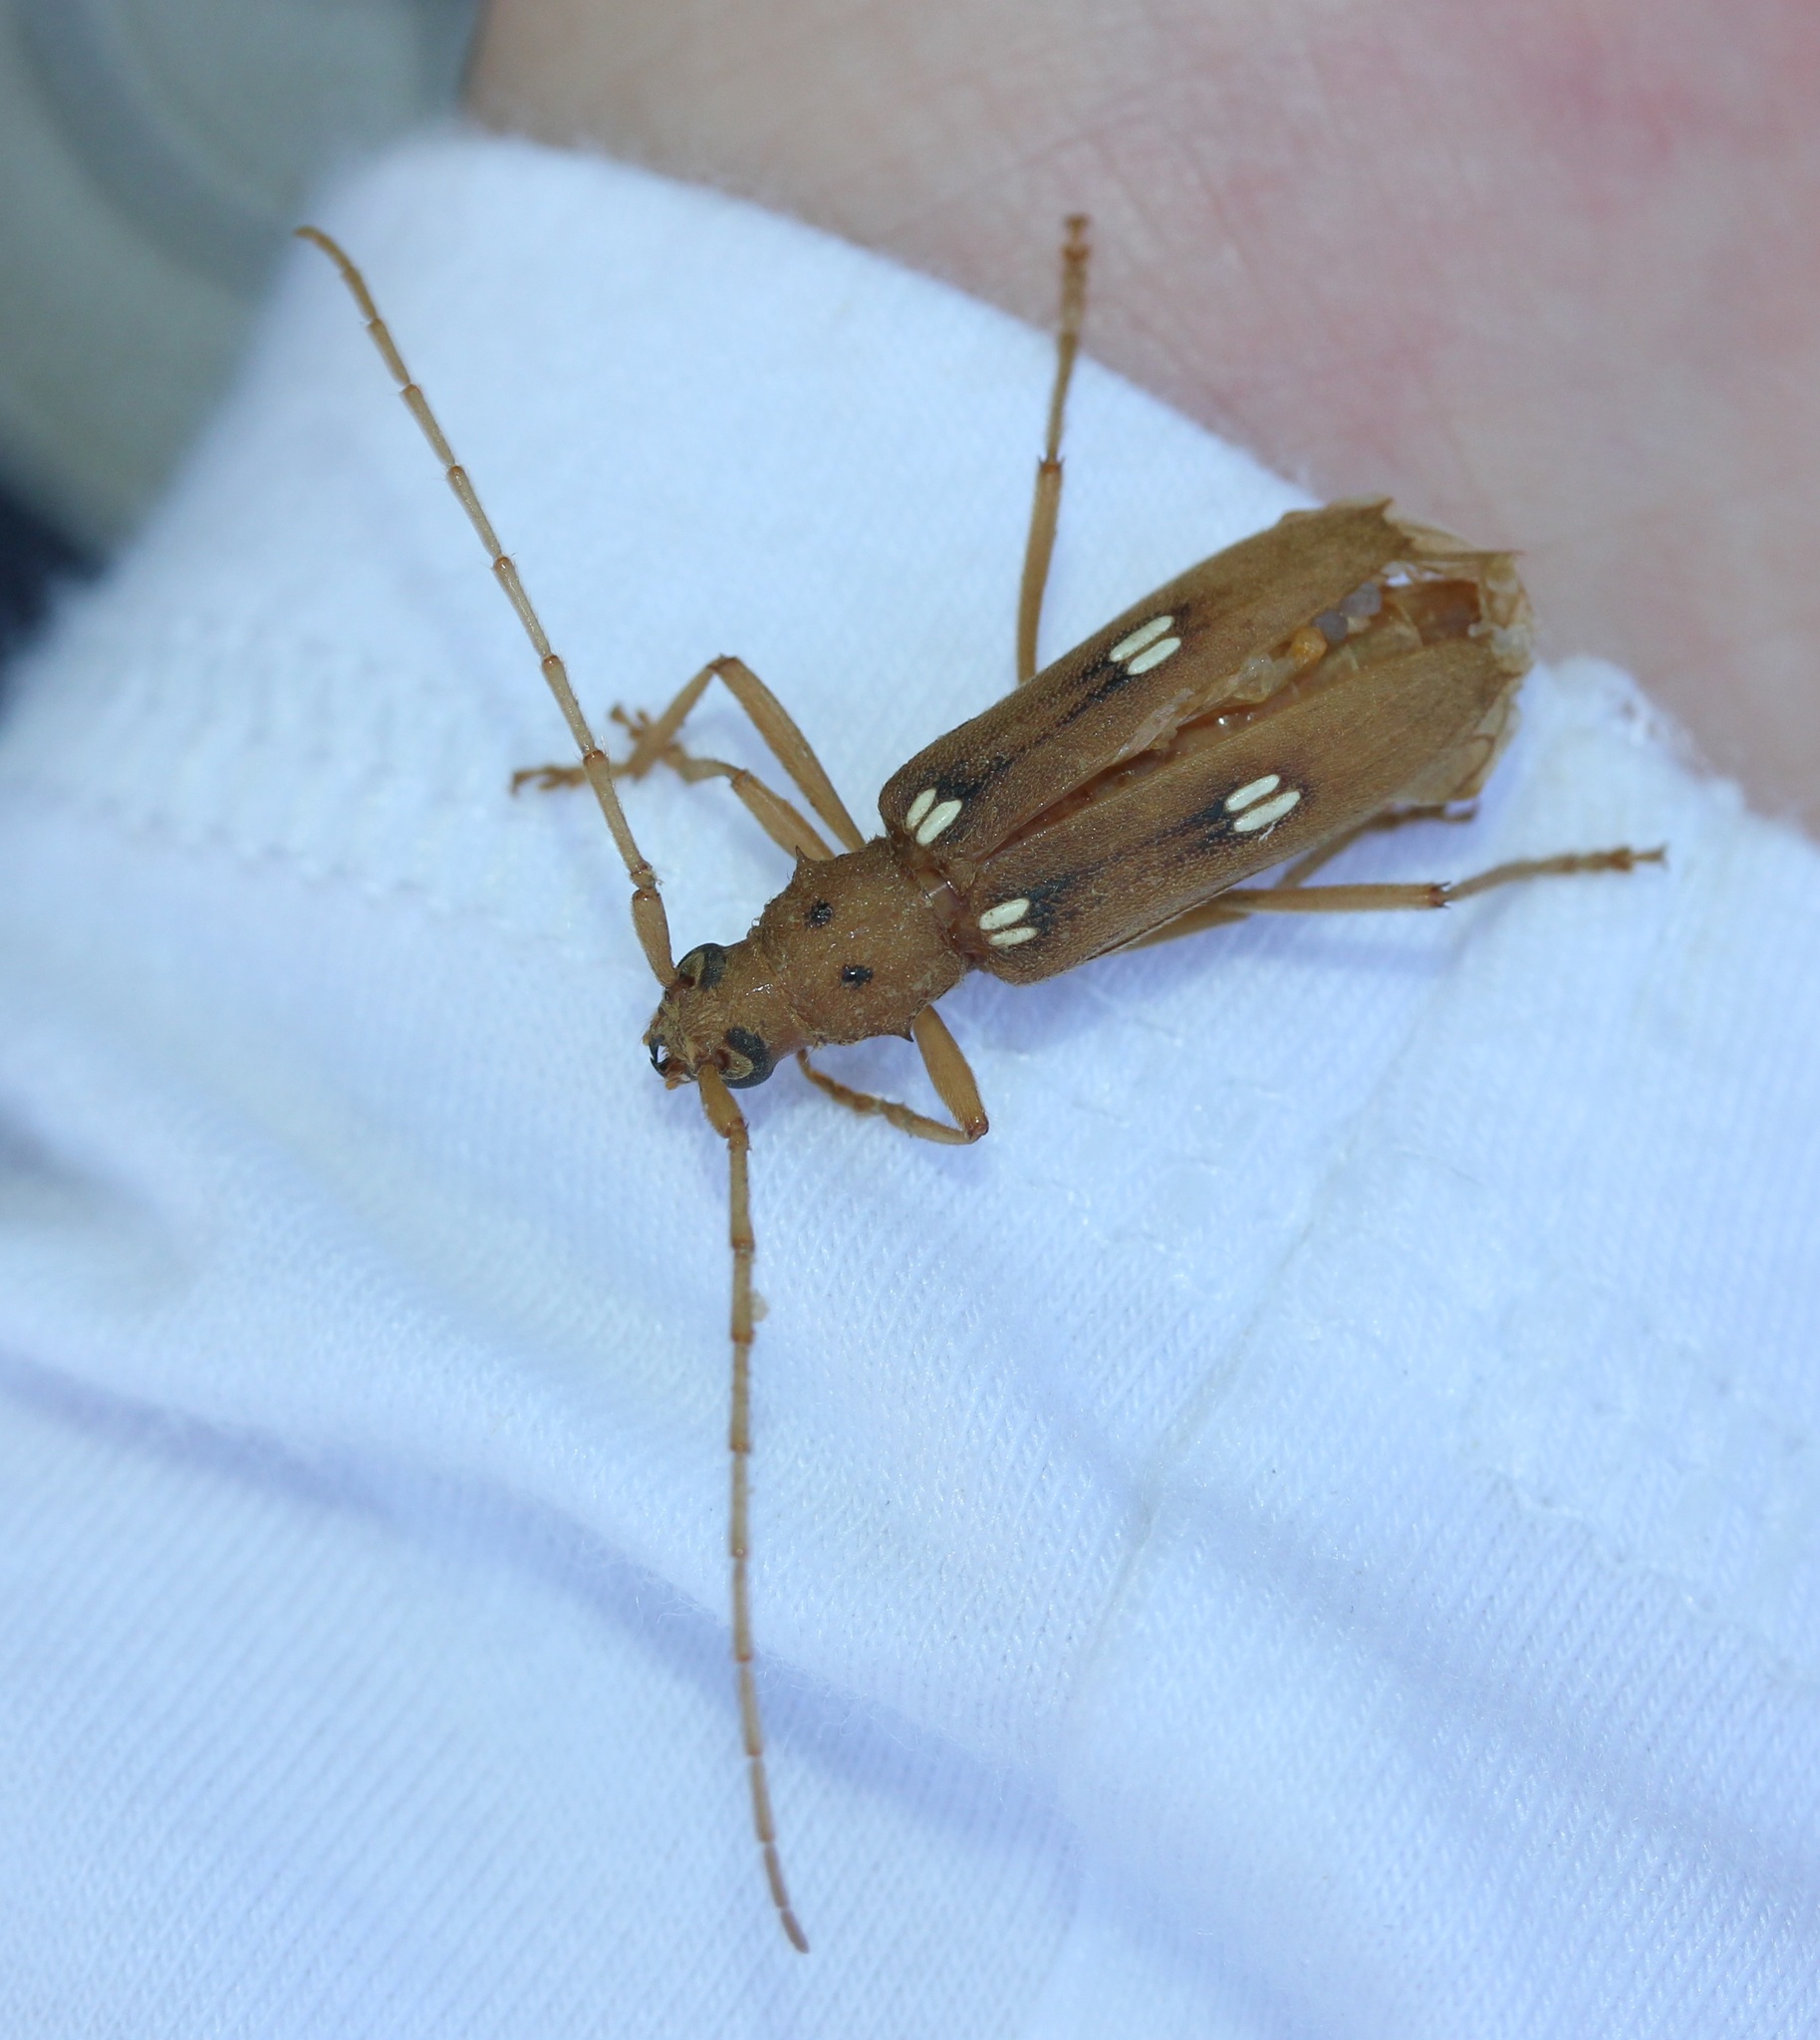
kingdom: Animalia
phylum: Arthropoda
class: Insecta
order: Coleoptera
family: Cerambycidae
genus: Eburia
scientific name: Eburia quadrigeminata
